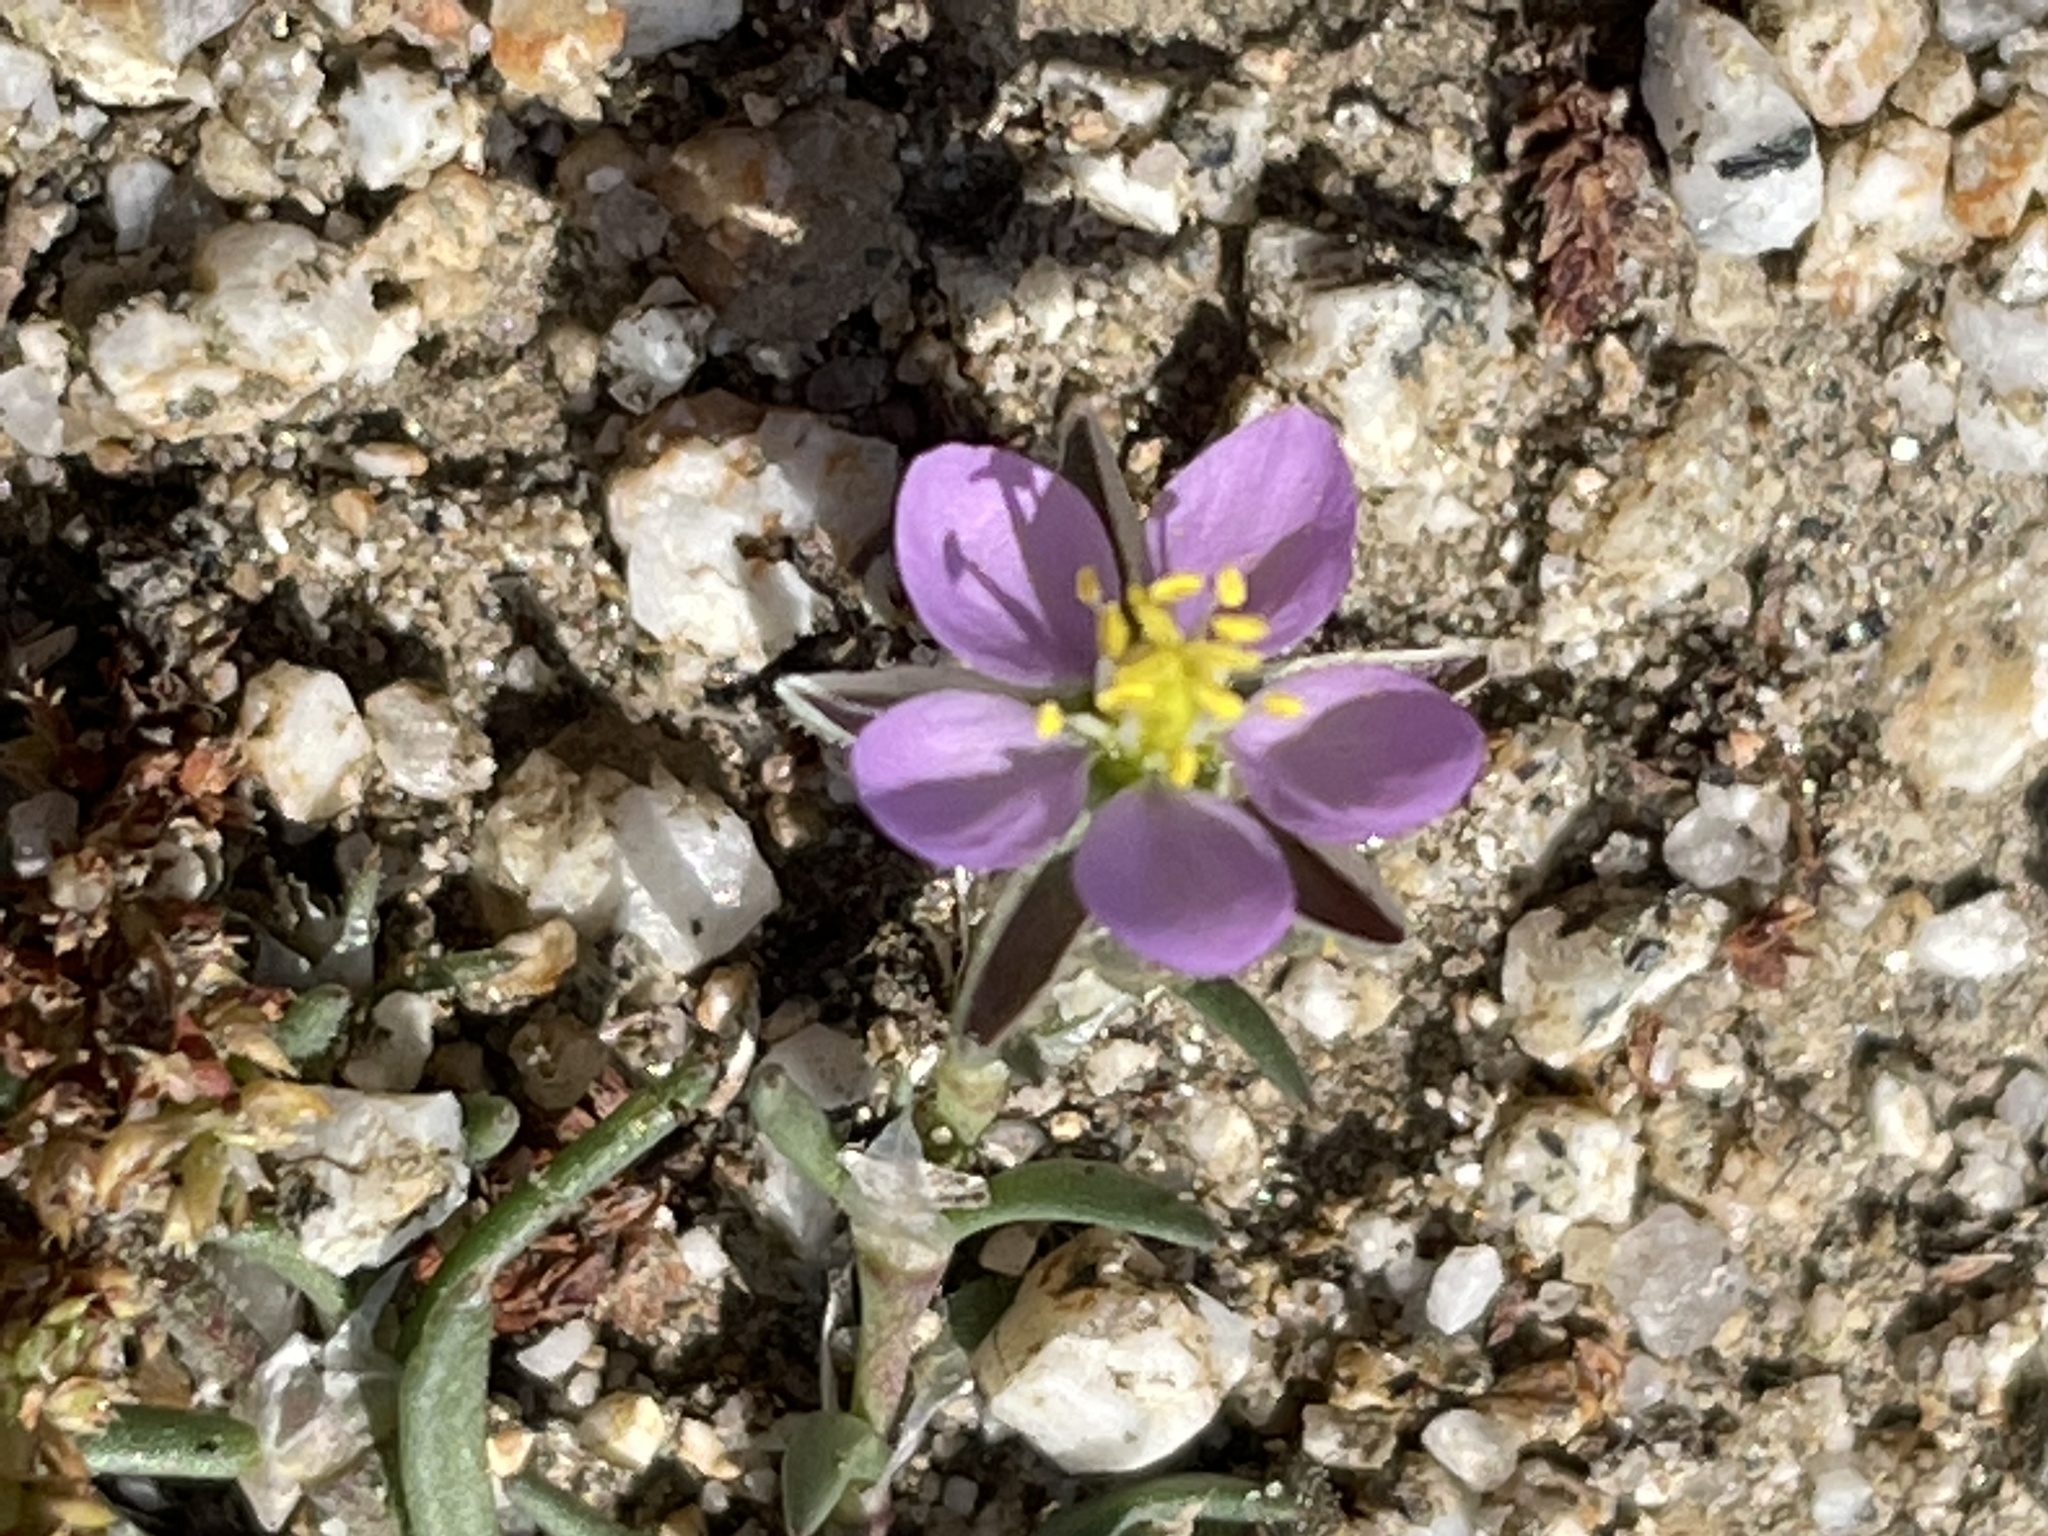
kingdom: Plantae
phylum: Tracheophyta
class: Magnoliopsida
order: Caryophyllales
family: Caryophyllaceae
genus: Spergularia
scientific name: Spergularia rubra
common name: Red sand-spurrey
